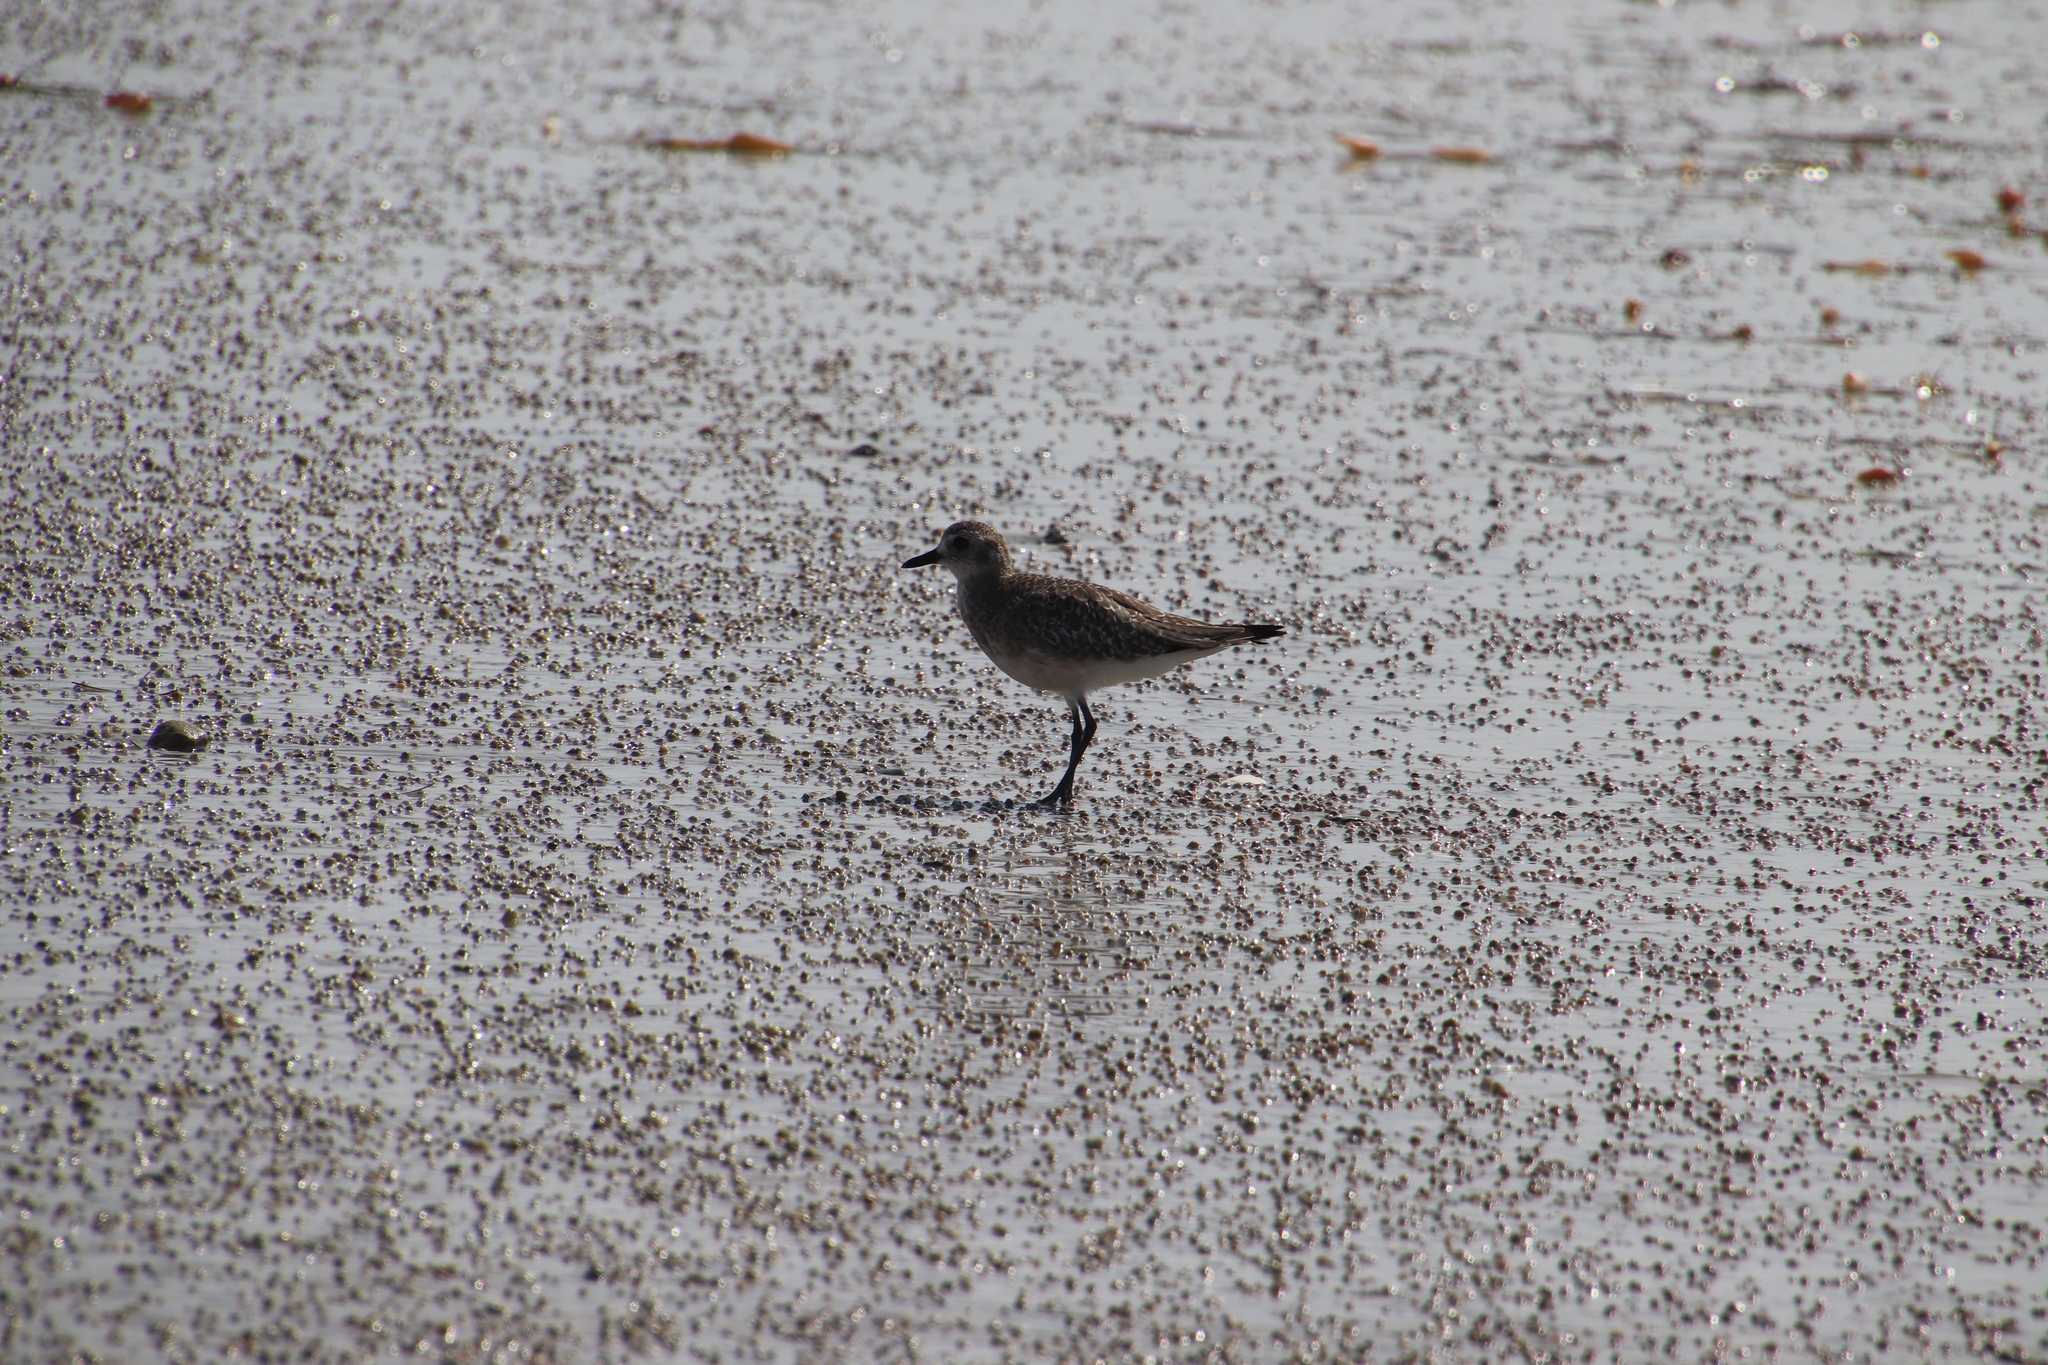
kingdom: Animalia
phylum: Chordata
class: Aves
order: Charadriiformes
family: Charadriidae
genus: Pluvialis
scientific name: Pluvialis squatarola
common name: Grey plover
